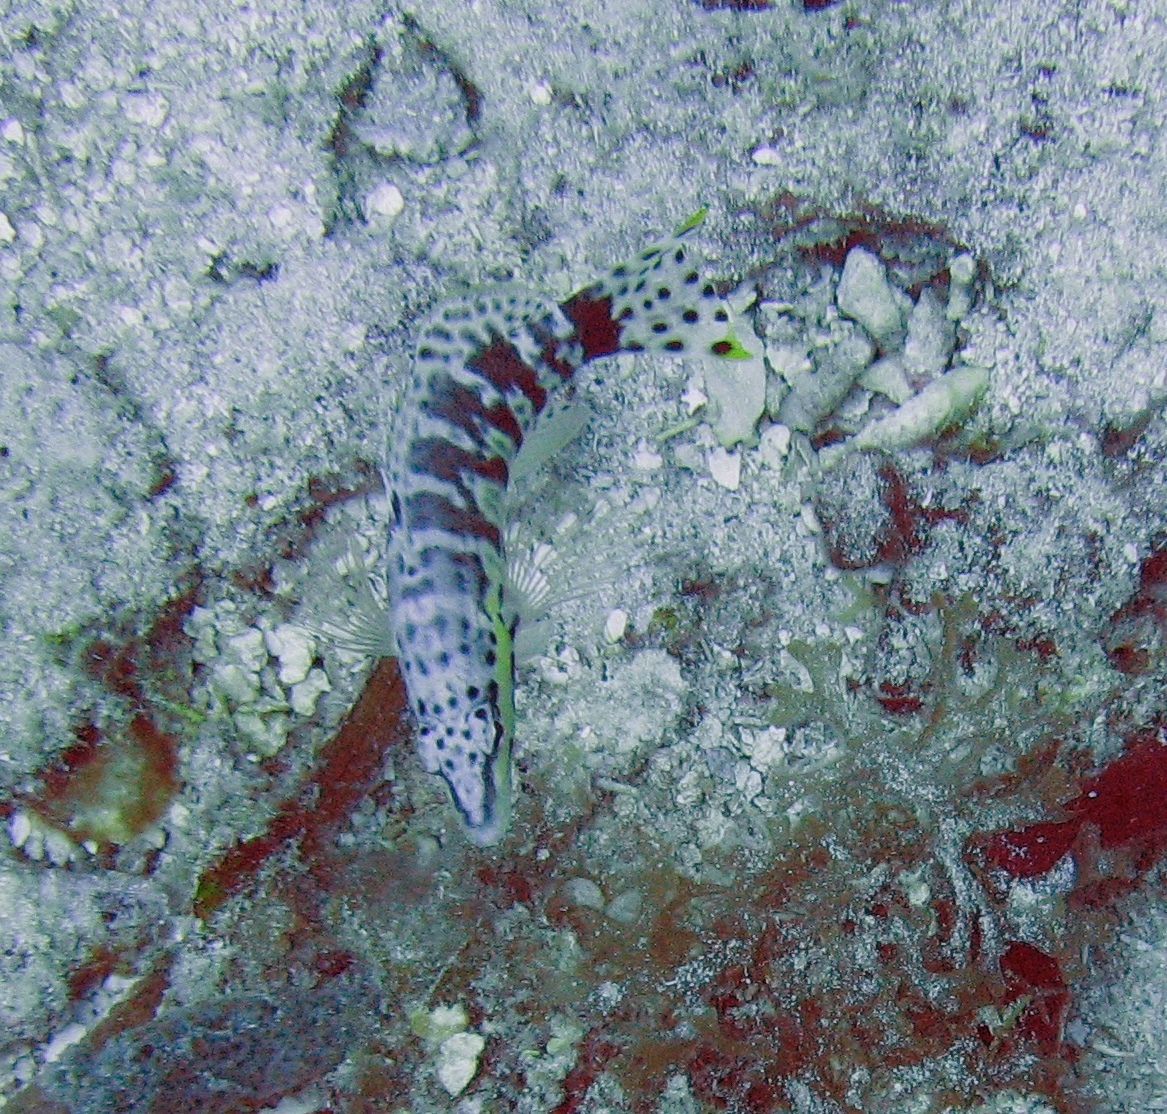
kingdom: Animalia
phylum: Chordata
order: Perciformes
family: Serranidae
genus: Serranus
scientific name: Serranus tigrinus
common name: Harlequin bass
